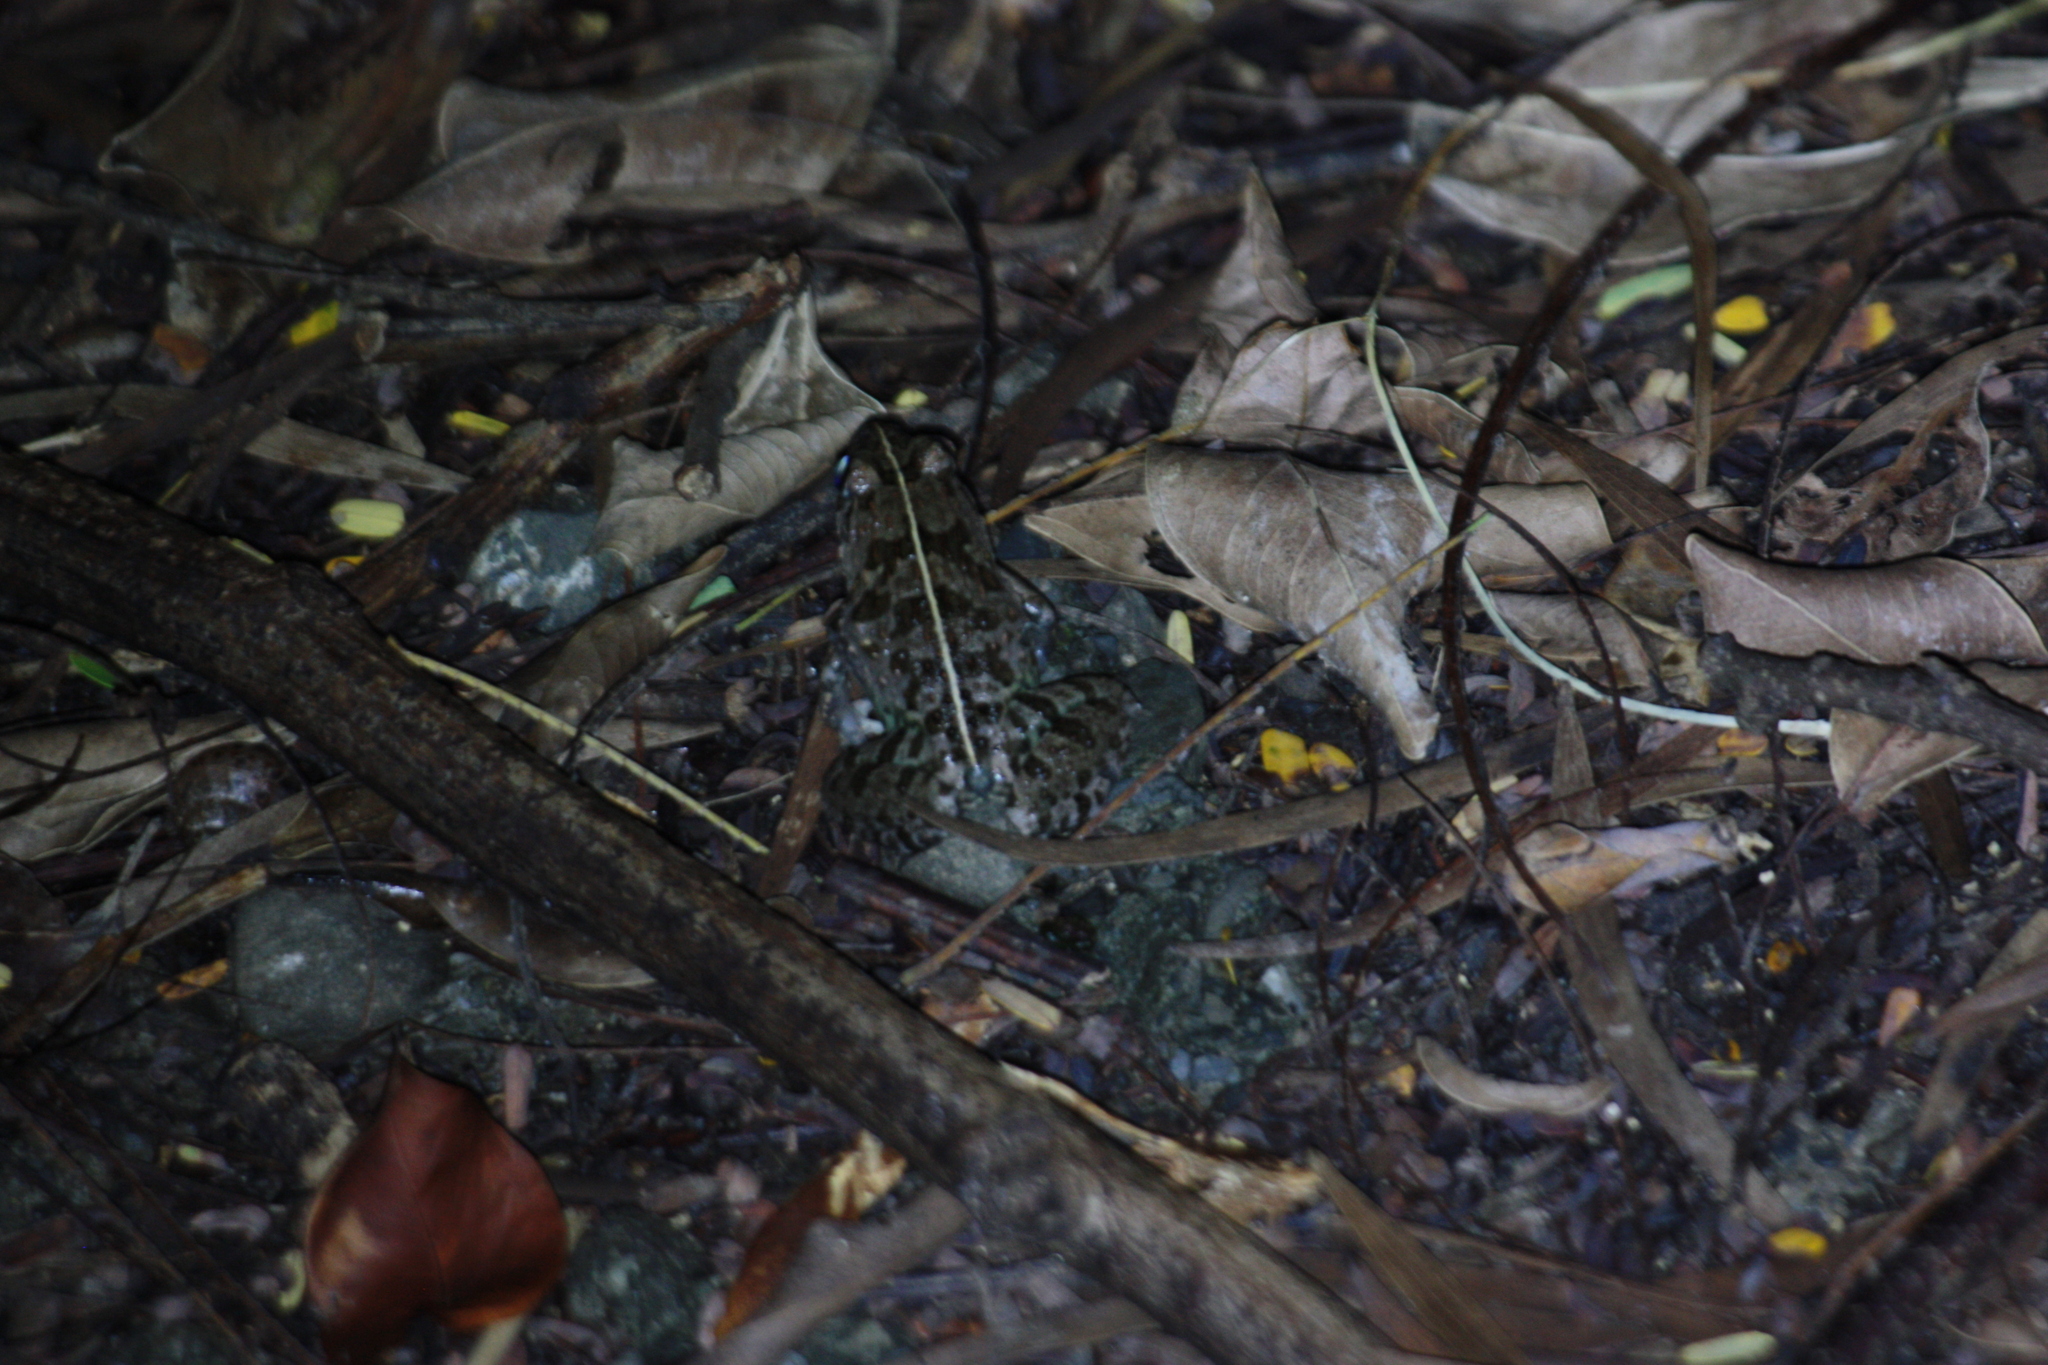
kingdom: Animalia
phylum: Chordata
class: Amphibia
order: Anura
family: Dicroglossidae
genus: Fejervarya
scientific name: Fejervarya limnocharis
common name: Asian grass frog/common pond frog/field frog/grass frog/indian rice frog
